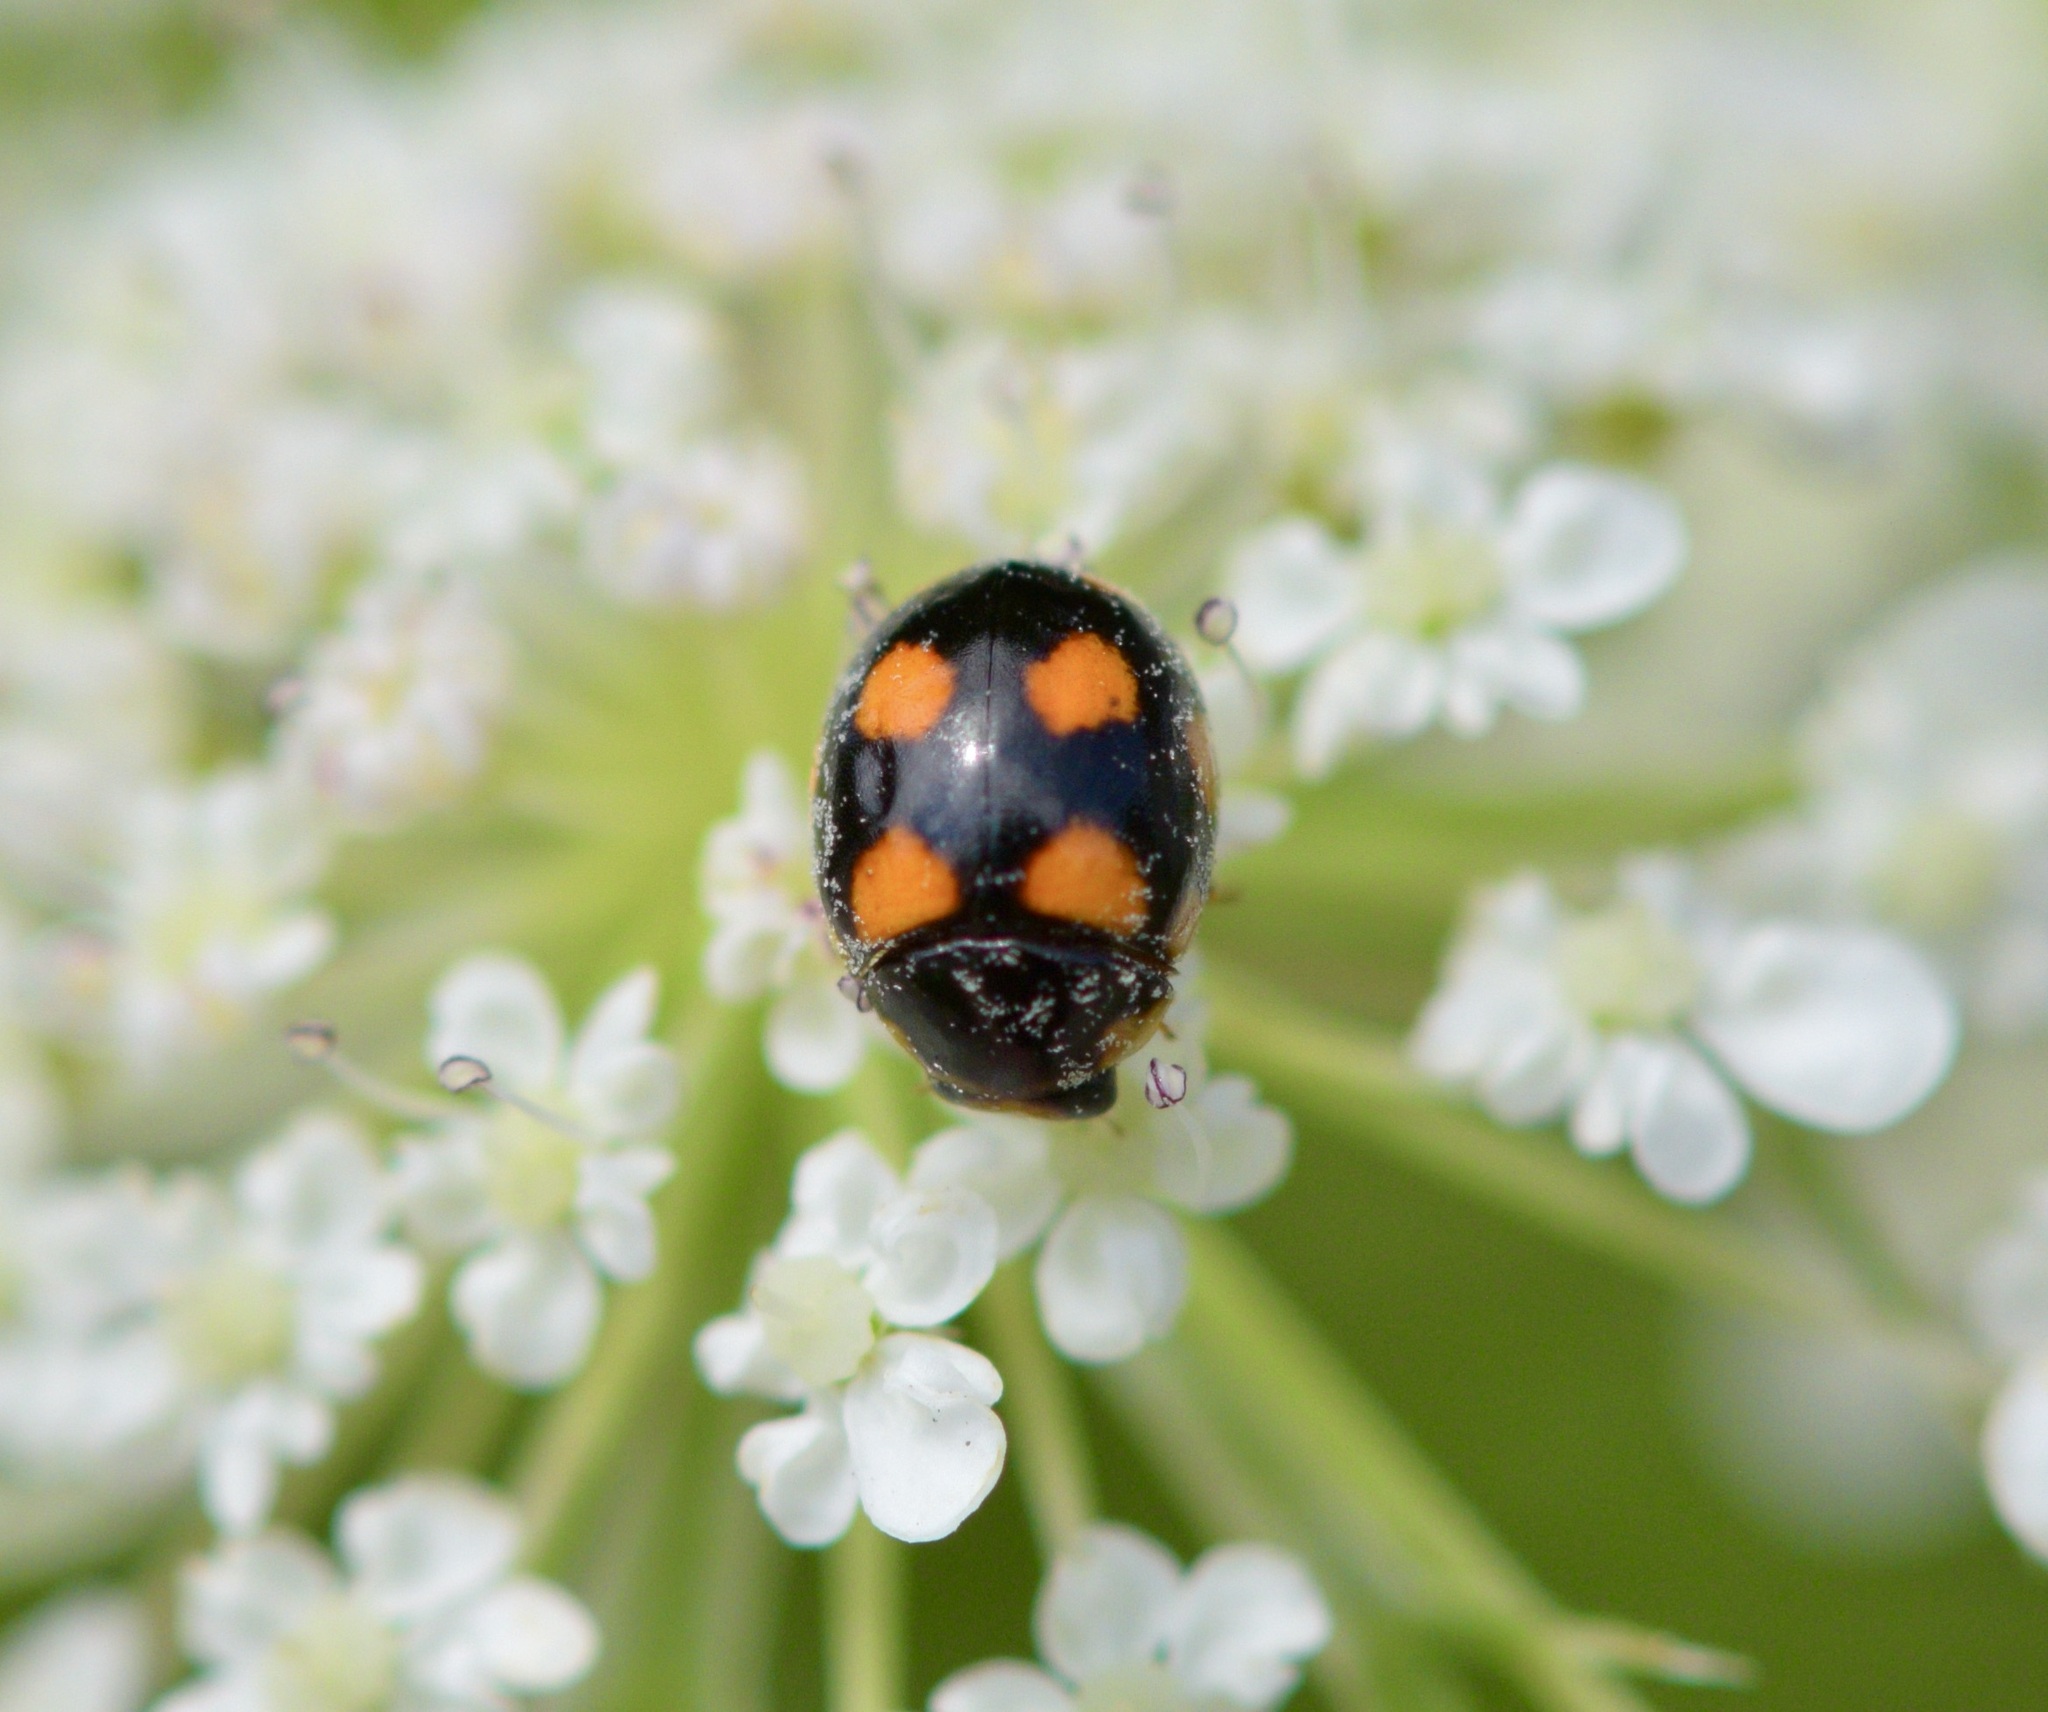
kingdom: Animalia
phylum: Arthropoda
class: Insecta
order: Coleoptera
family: Coccinellidae
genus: Brachiacantha
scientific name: Brachiacantha ursina
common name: Ursine spurleg lady beetle
